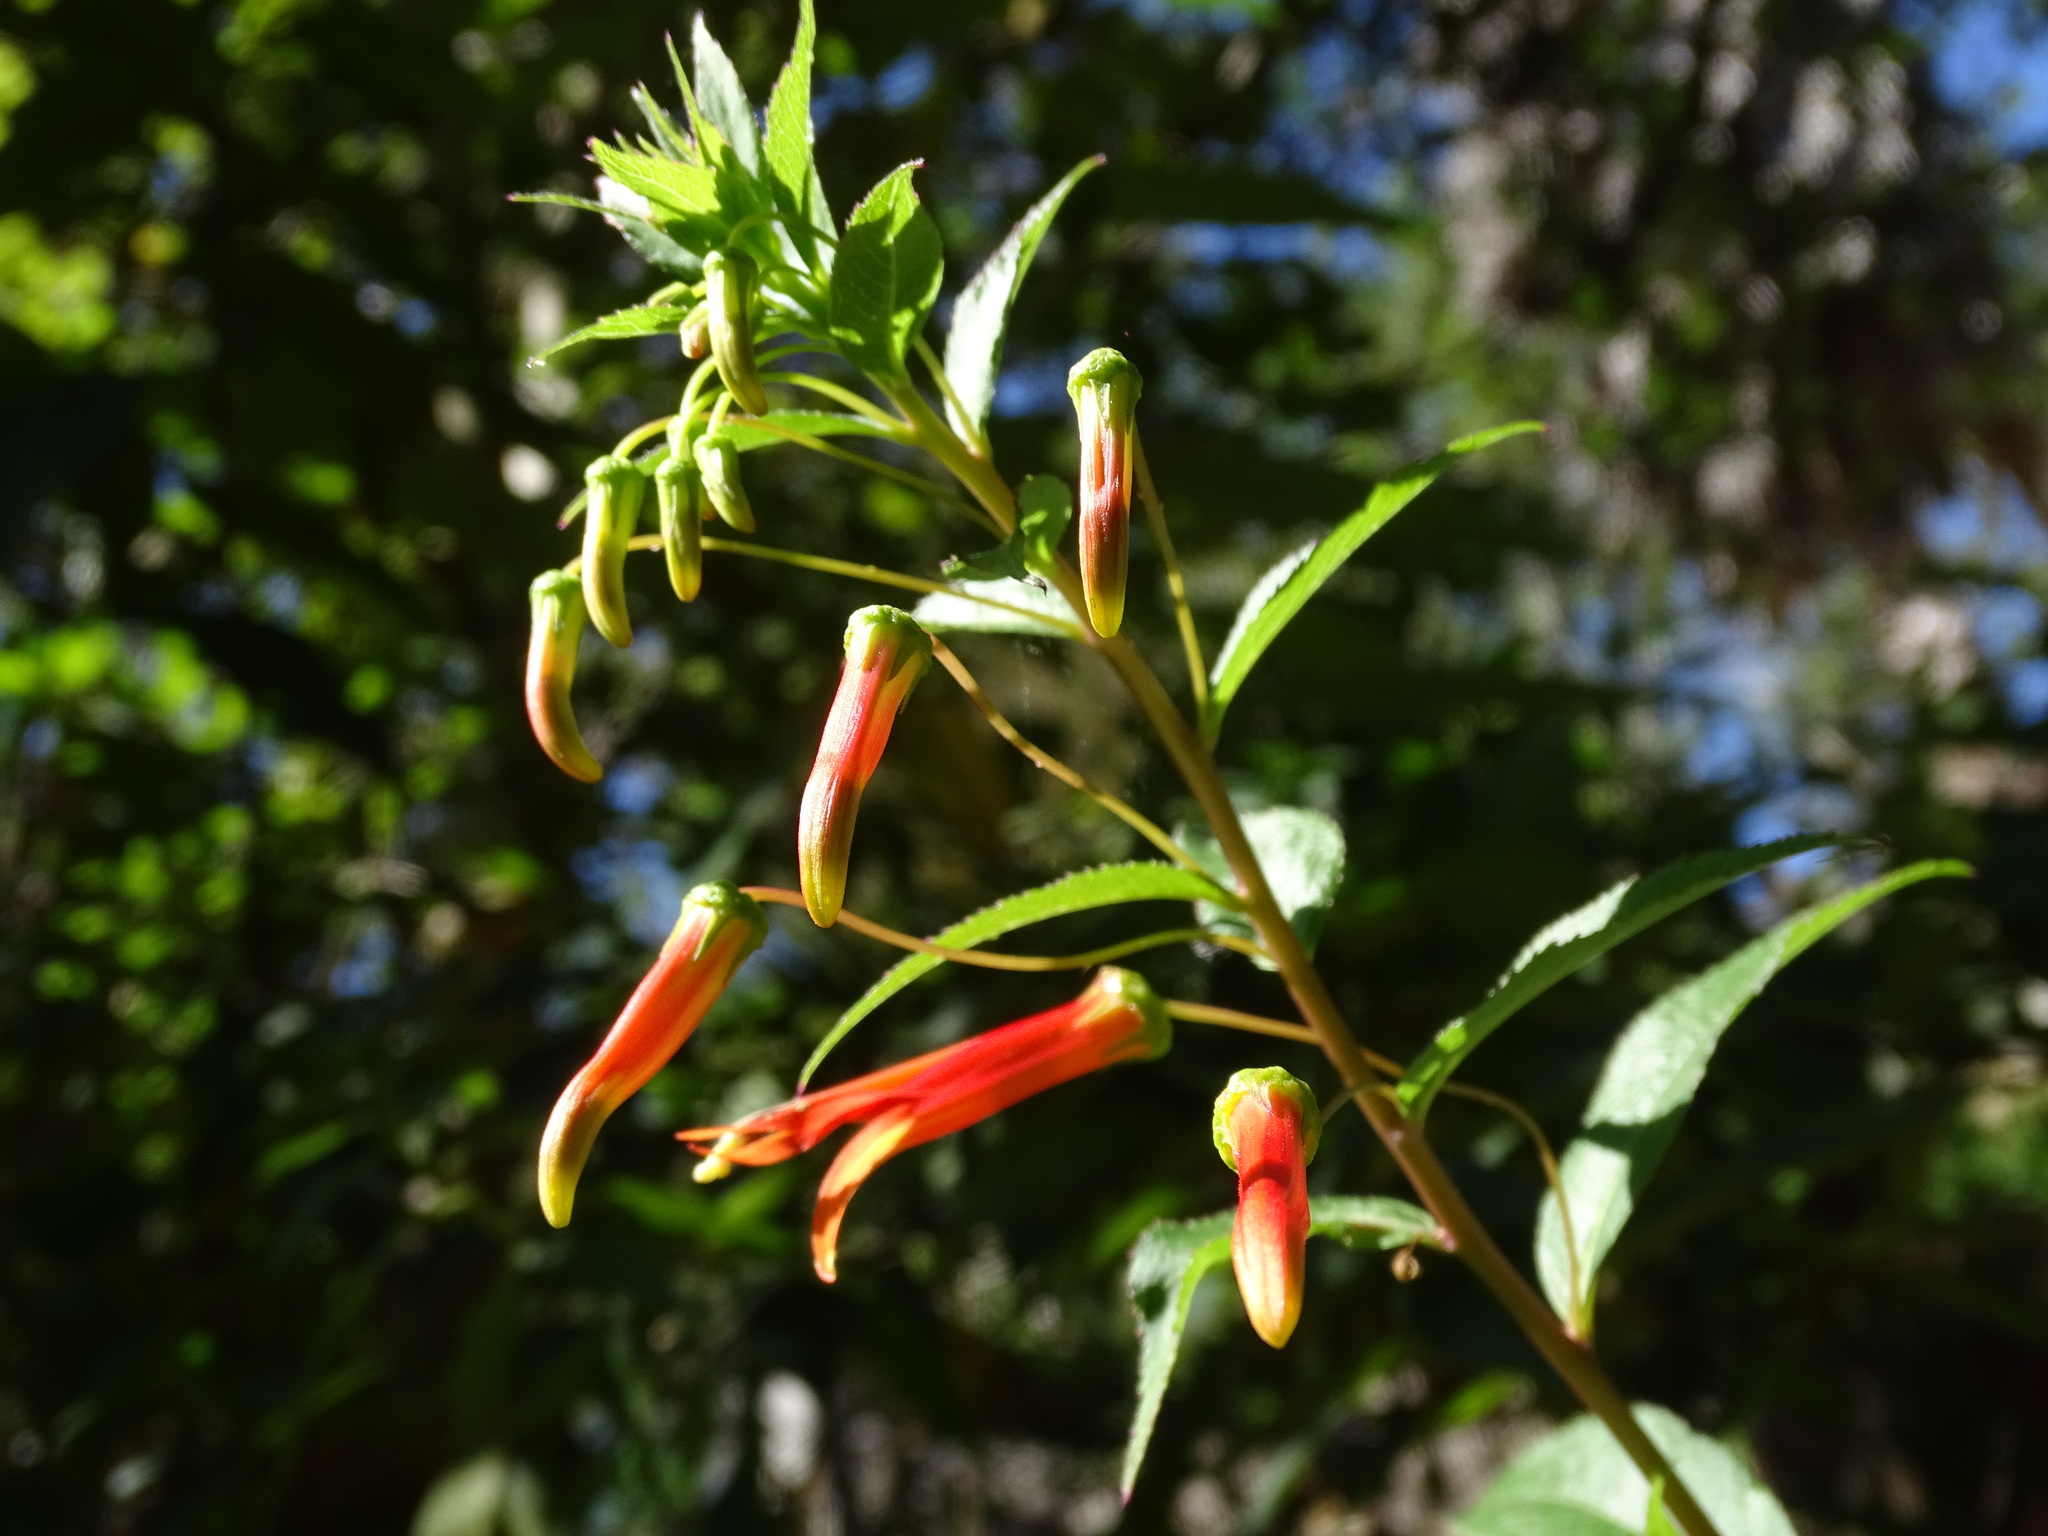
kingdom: Plantae
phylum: Tracheophyta
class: Magnoliopsida
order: Asterales
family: Campanulaceae
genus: Lobelia
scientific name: Lobelia laxiflora
